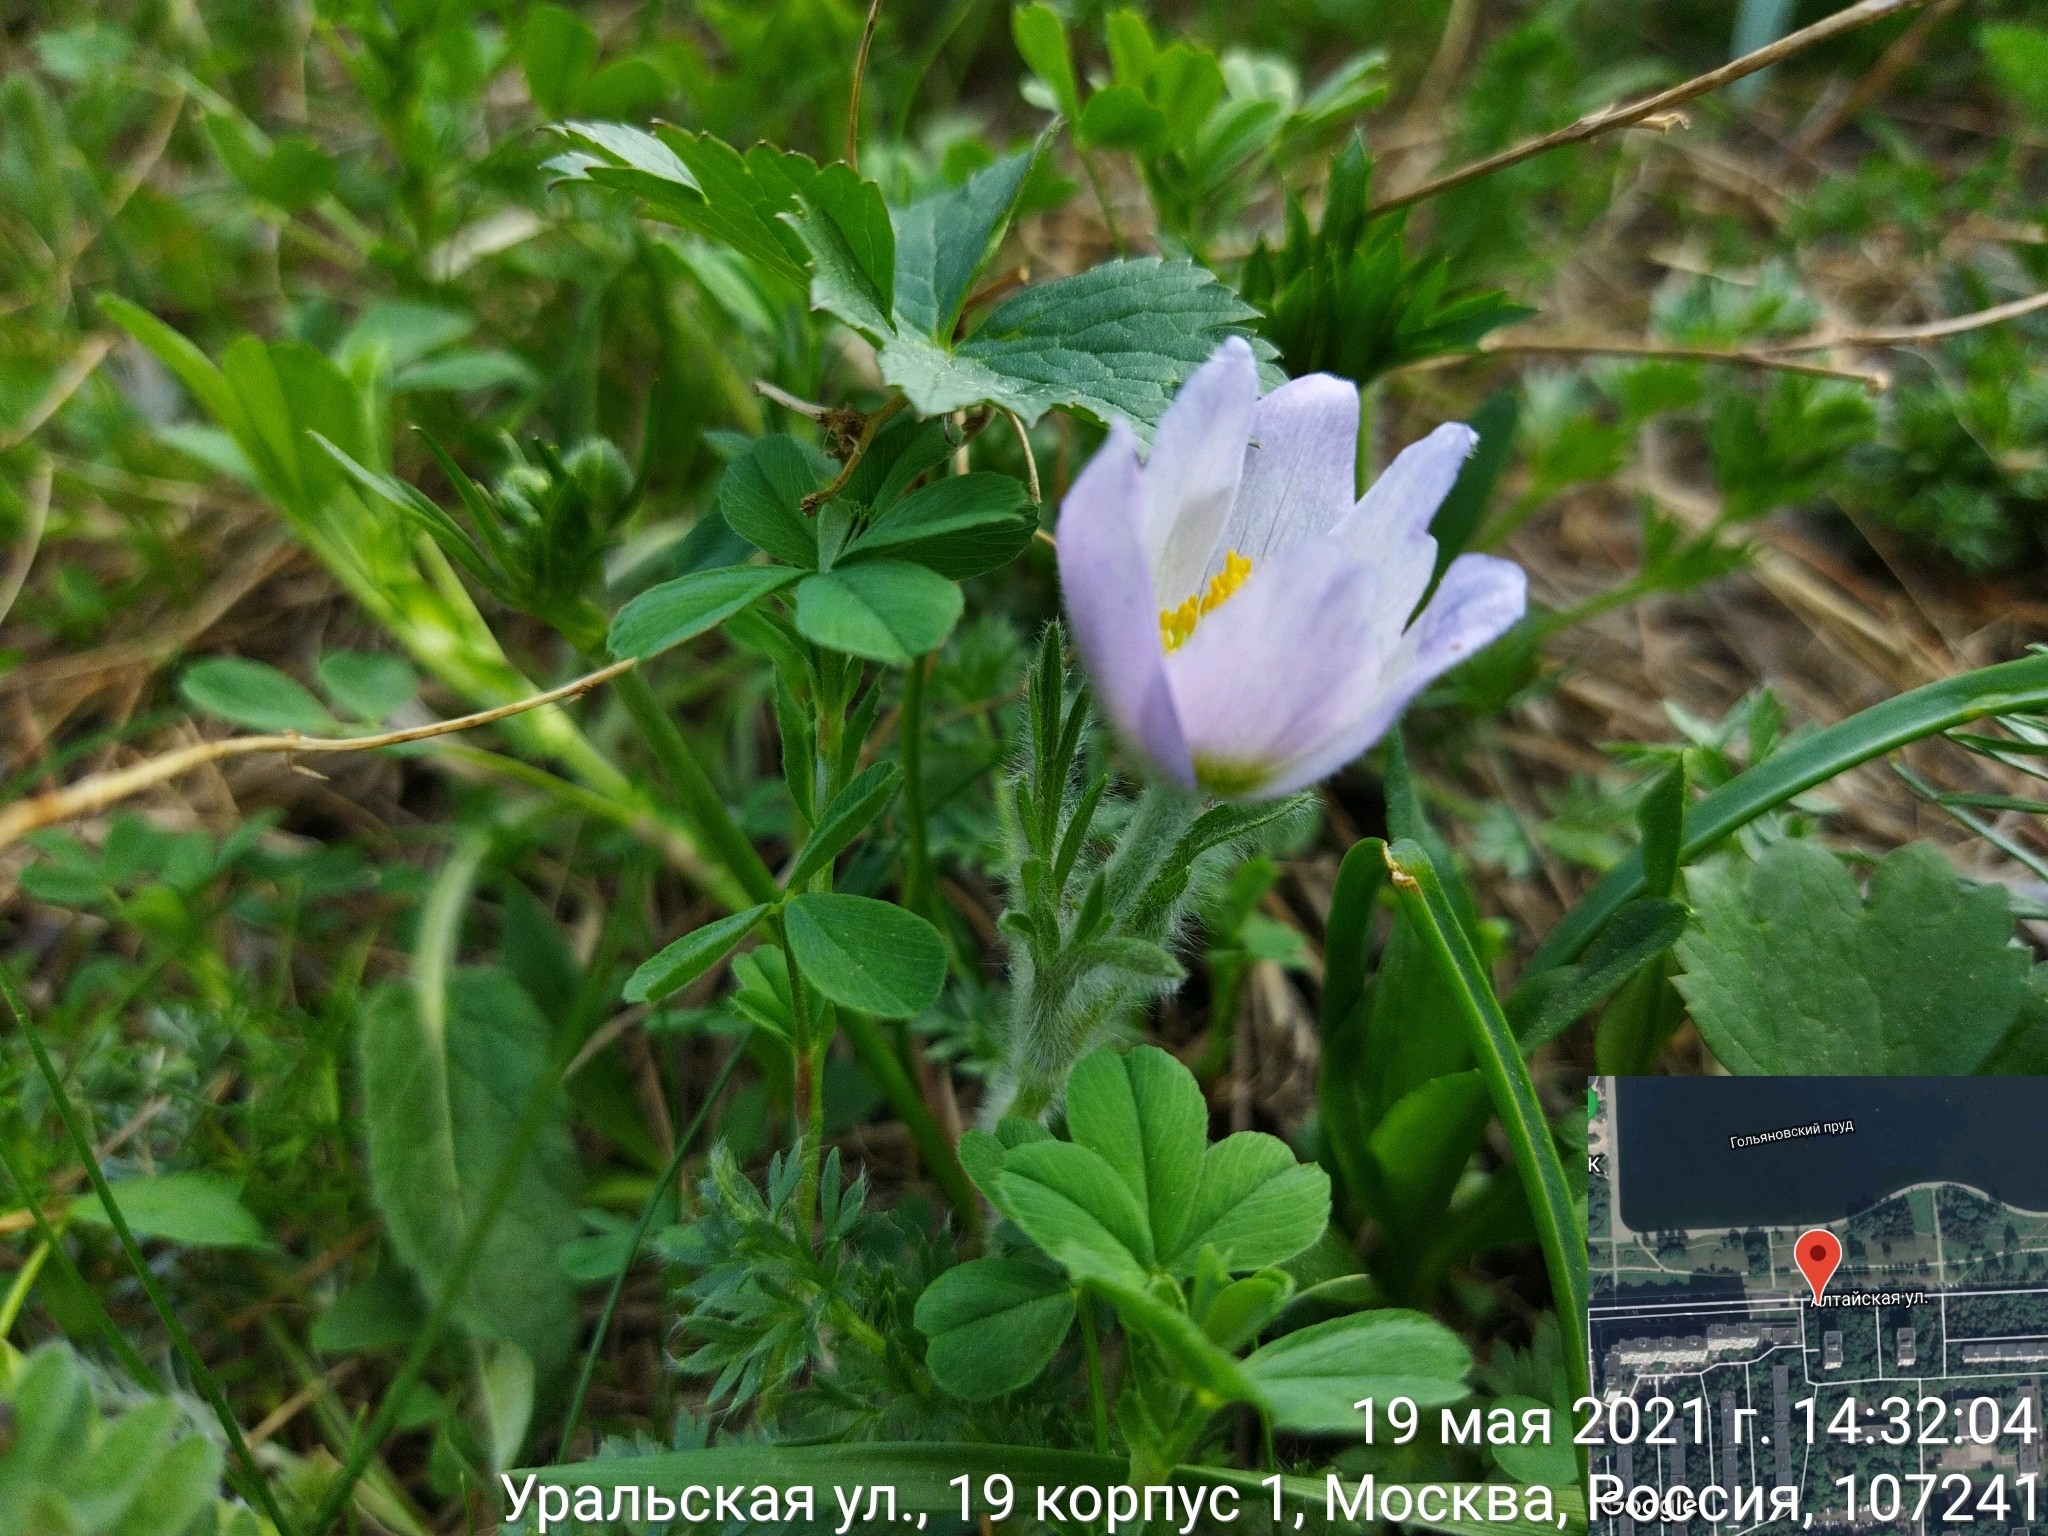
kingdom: Plantae
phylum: Tracheophyta
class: Magnoliopsida
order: Ranunculales
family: Ranunculaceae
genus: Pulsatilla
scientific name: Pulsatilla violacea
